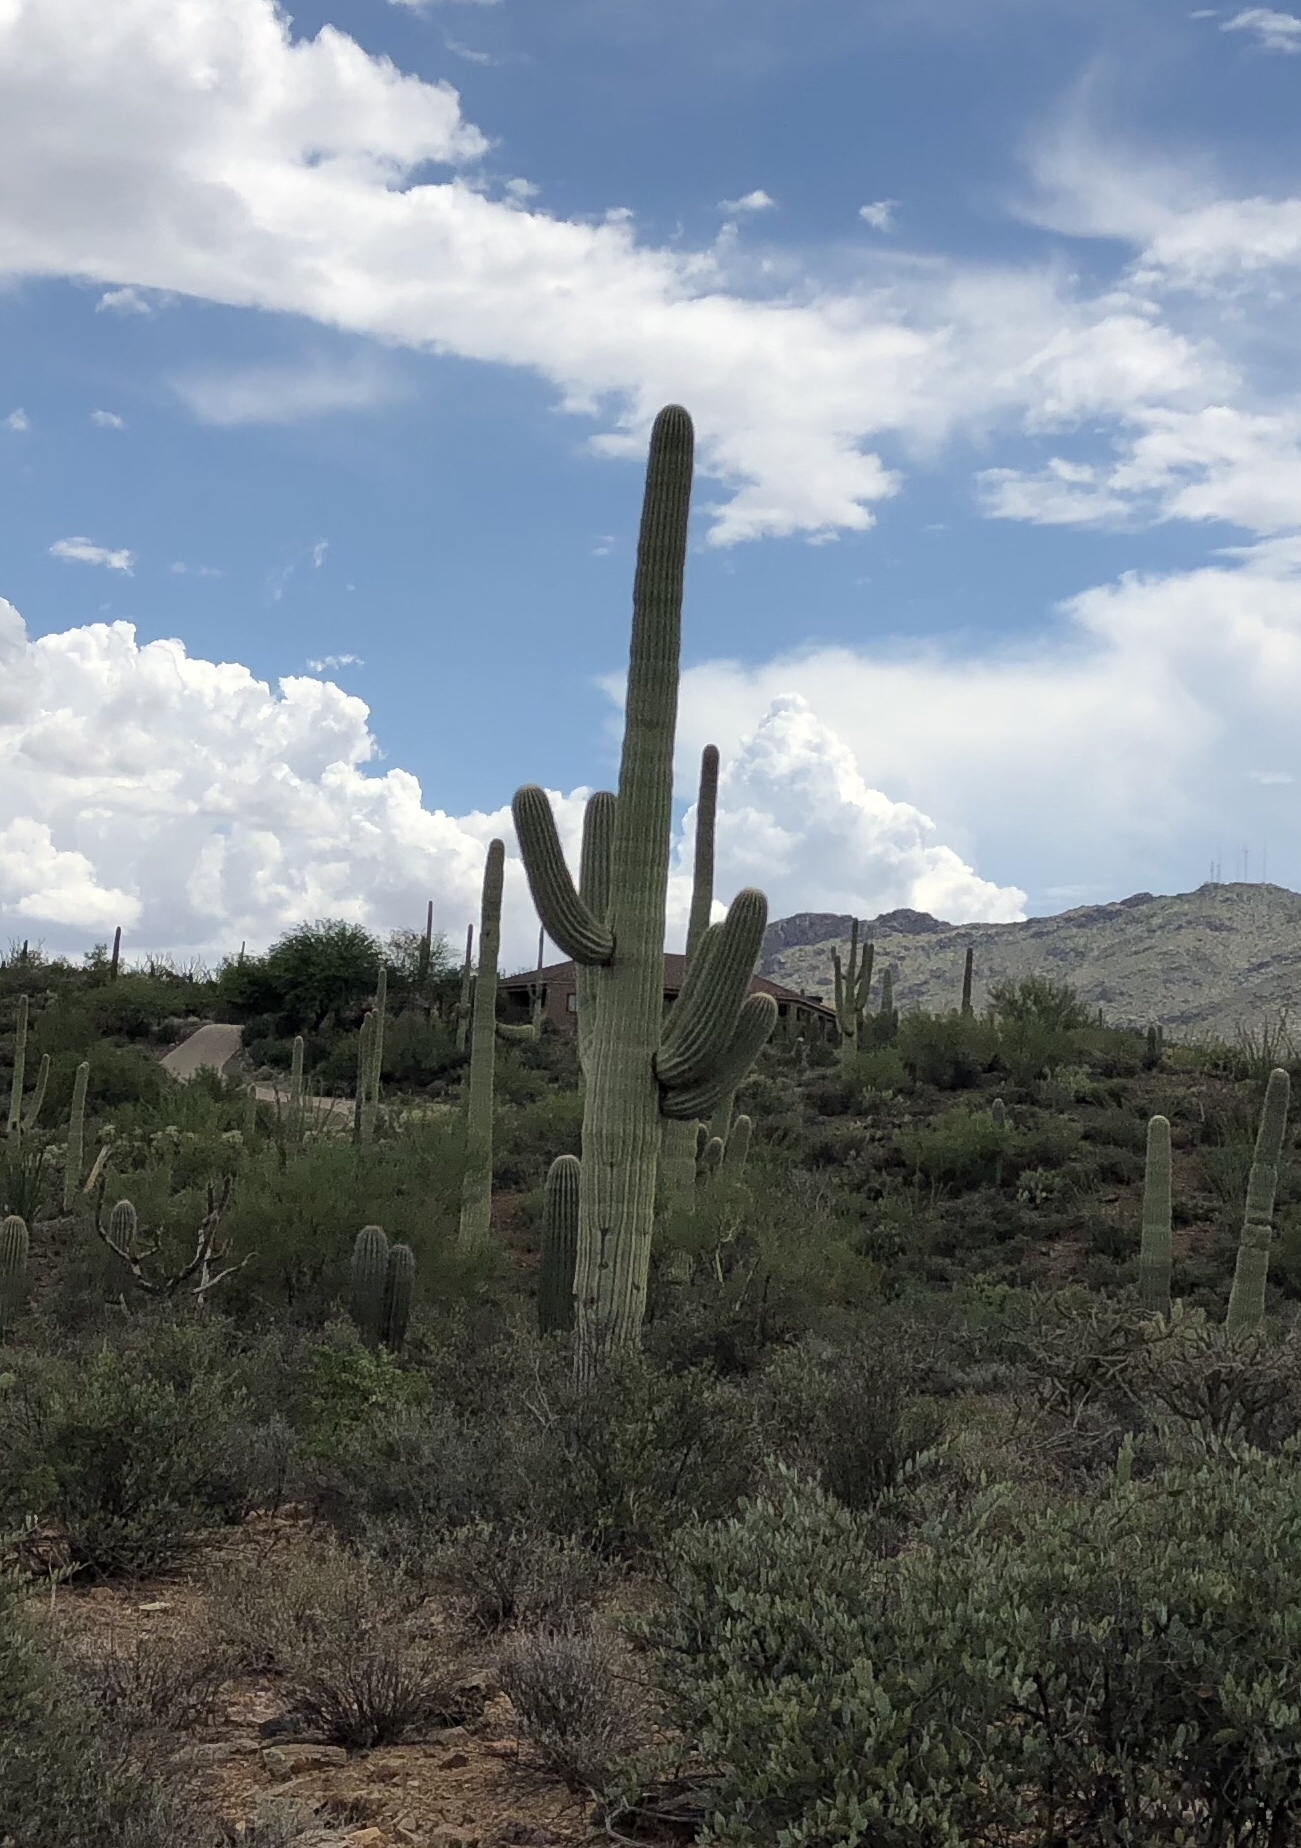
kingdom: Plantae
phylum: Tracheophyta
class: Magnoliopsida
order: Caryophyllales
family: Cactaceae
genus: Carnegiea
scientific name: Carnegiea gigantea
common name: Saguaro
